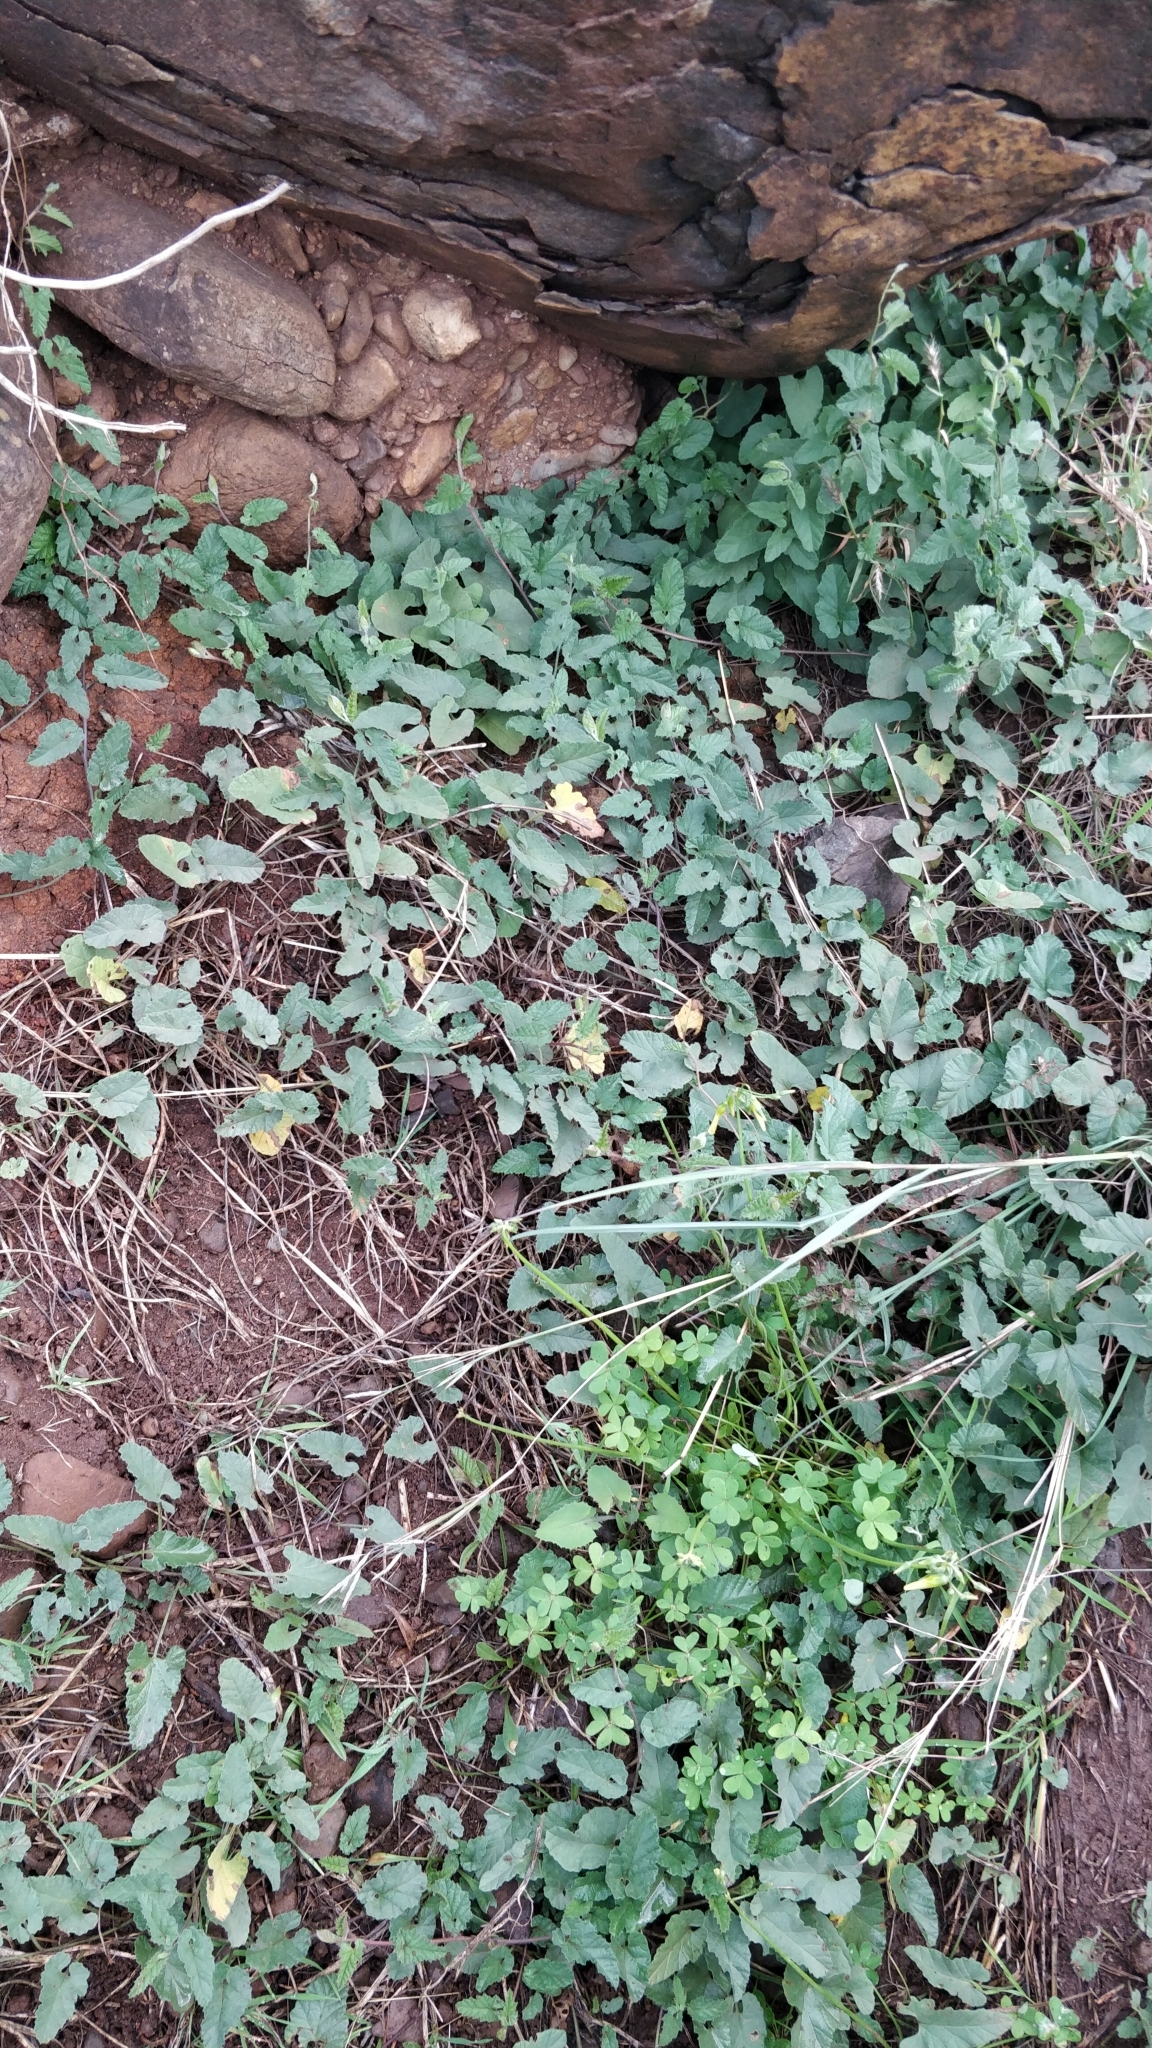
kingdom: Plantae
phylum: Tracheophyta
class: Magnoliopsida
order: Solanales
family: Convolvulaceae
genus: Convolvulus
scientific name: Convolvulus althaeoides
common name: Mallow bindweed
